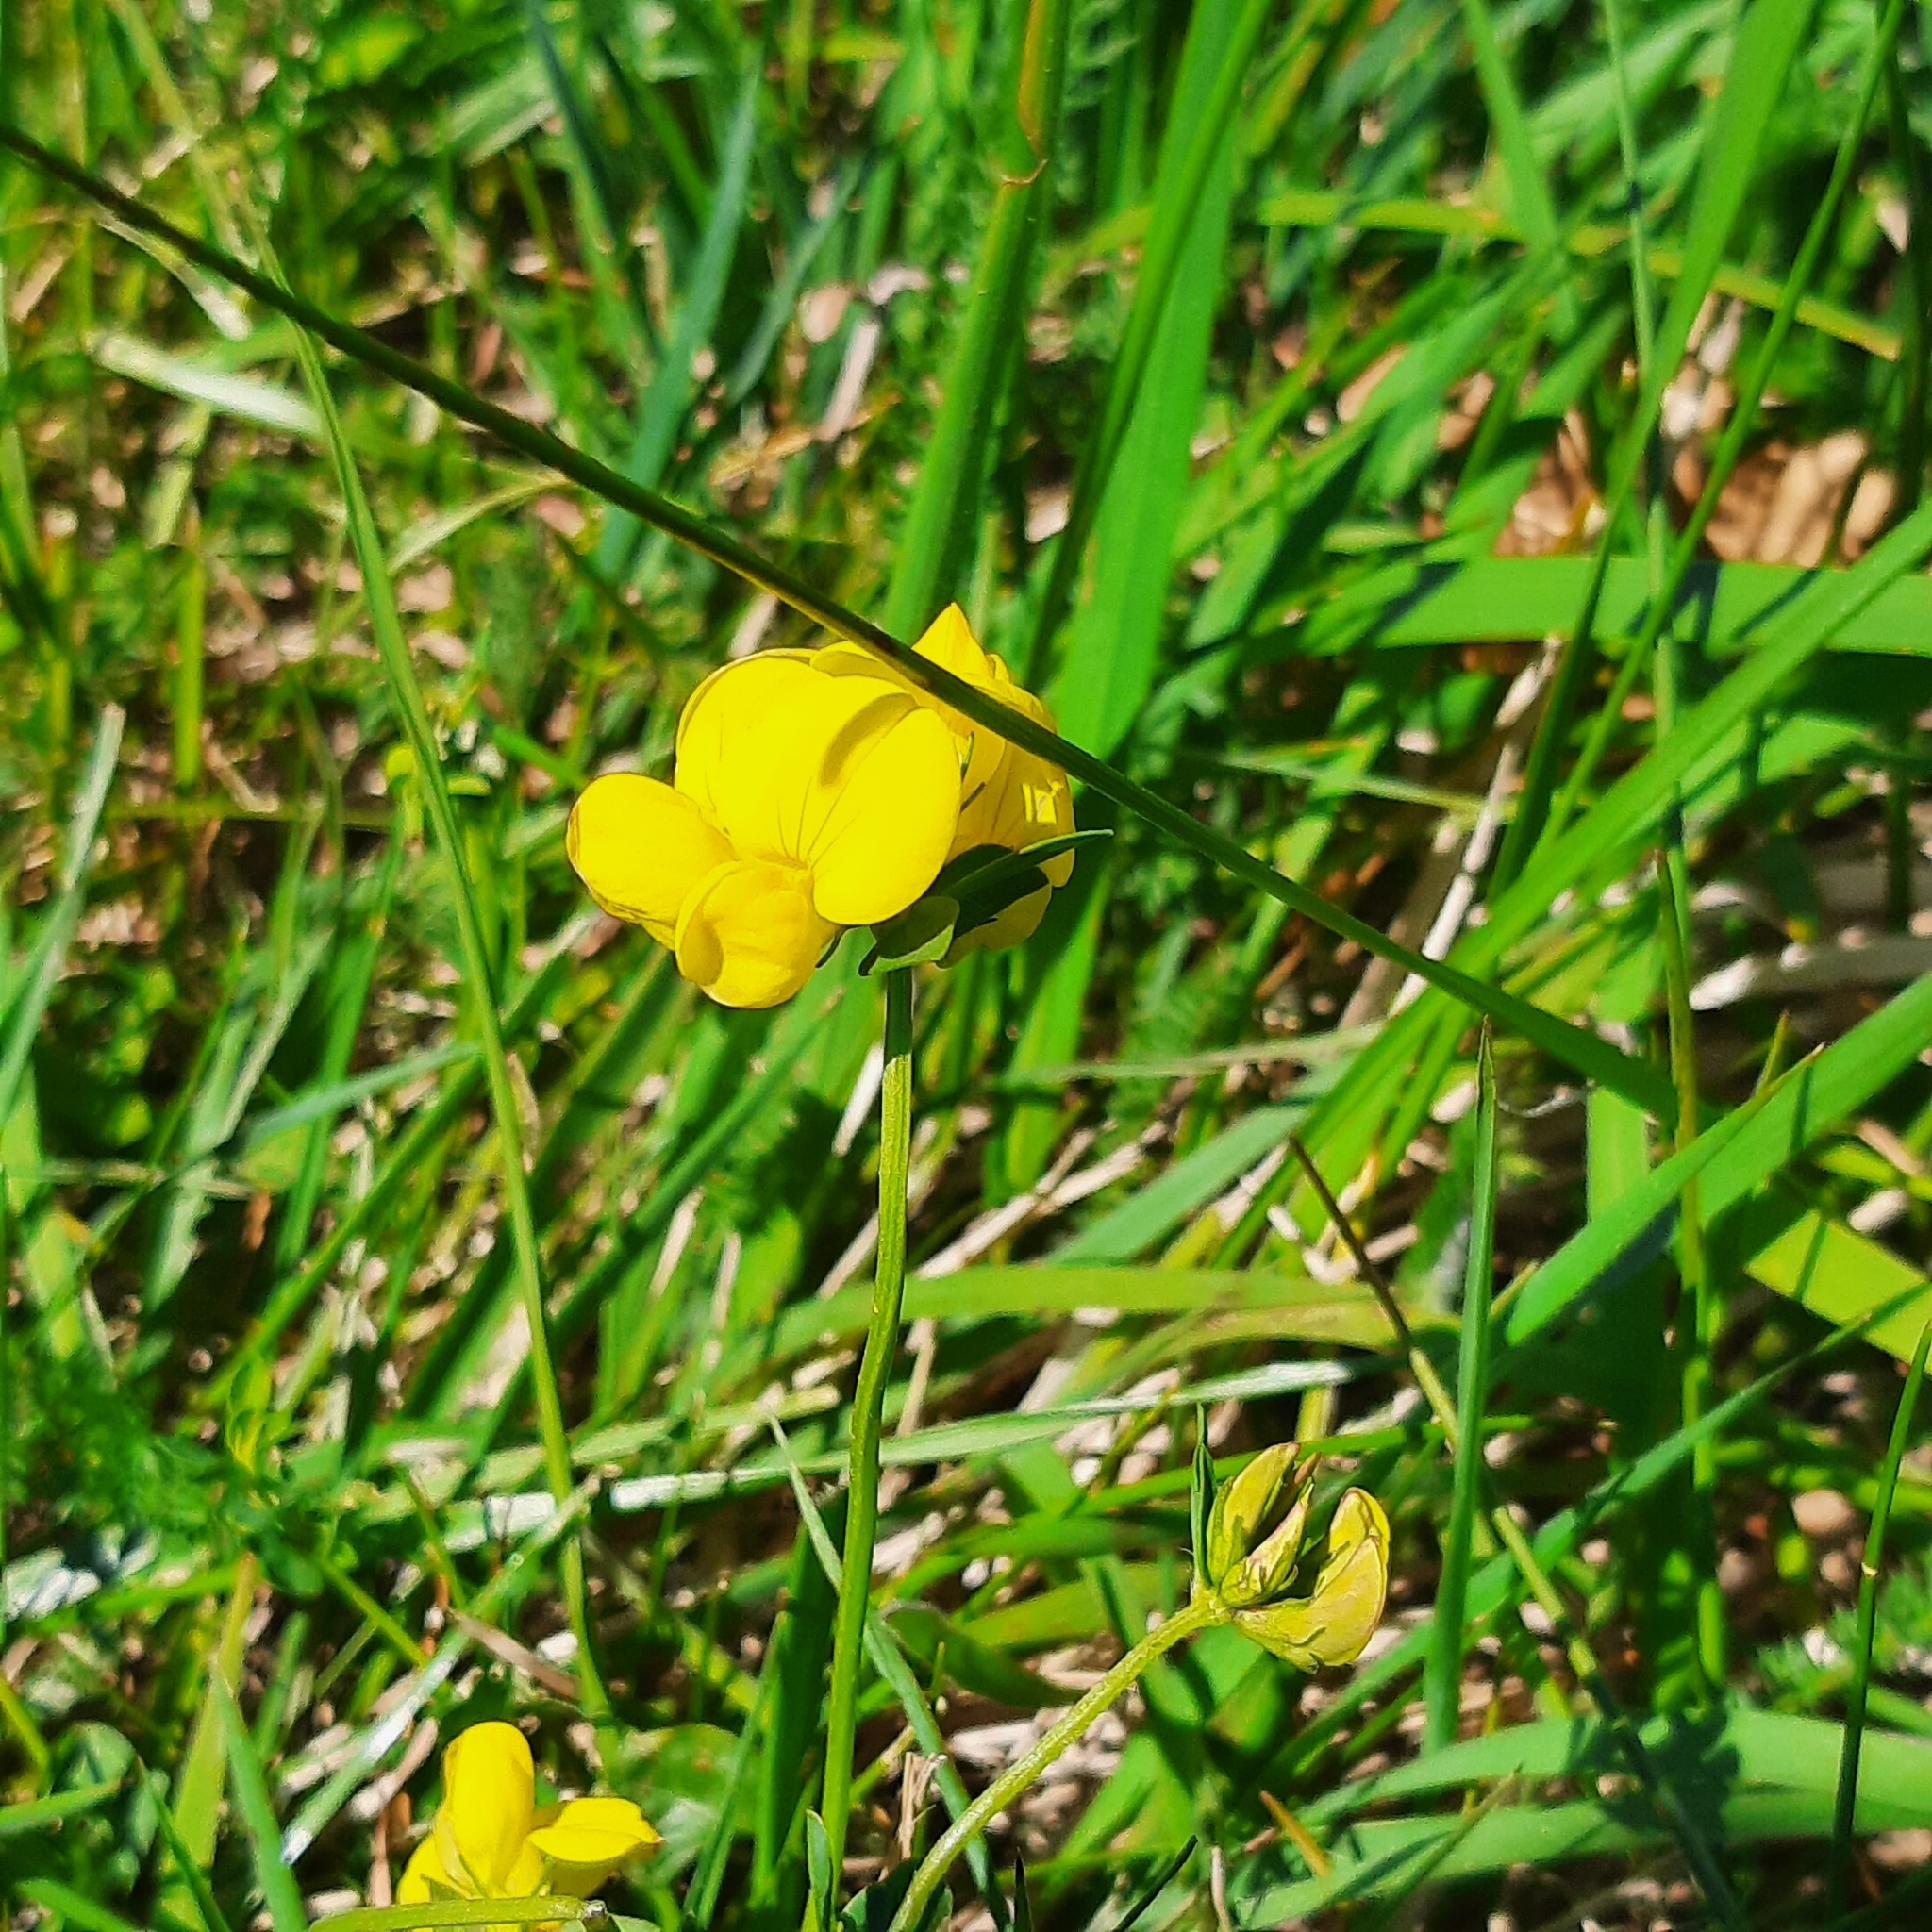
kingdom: Plantae
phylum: Tracheophyta
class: Magnoliopsida
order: Fabales
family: Fabaceae
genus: Lotus
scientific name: Lotus corniculatus
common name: Common bird's-foot-trefoil
